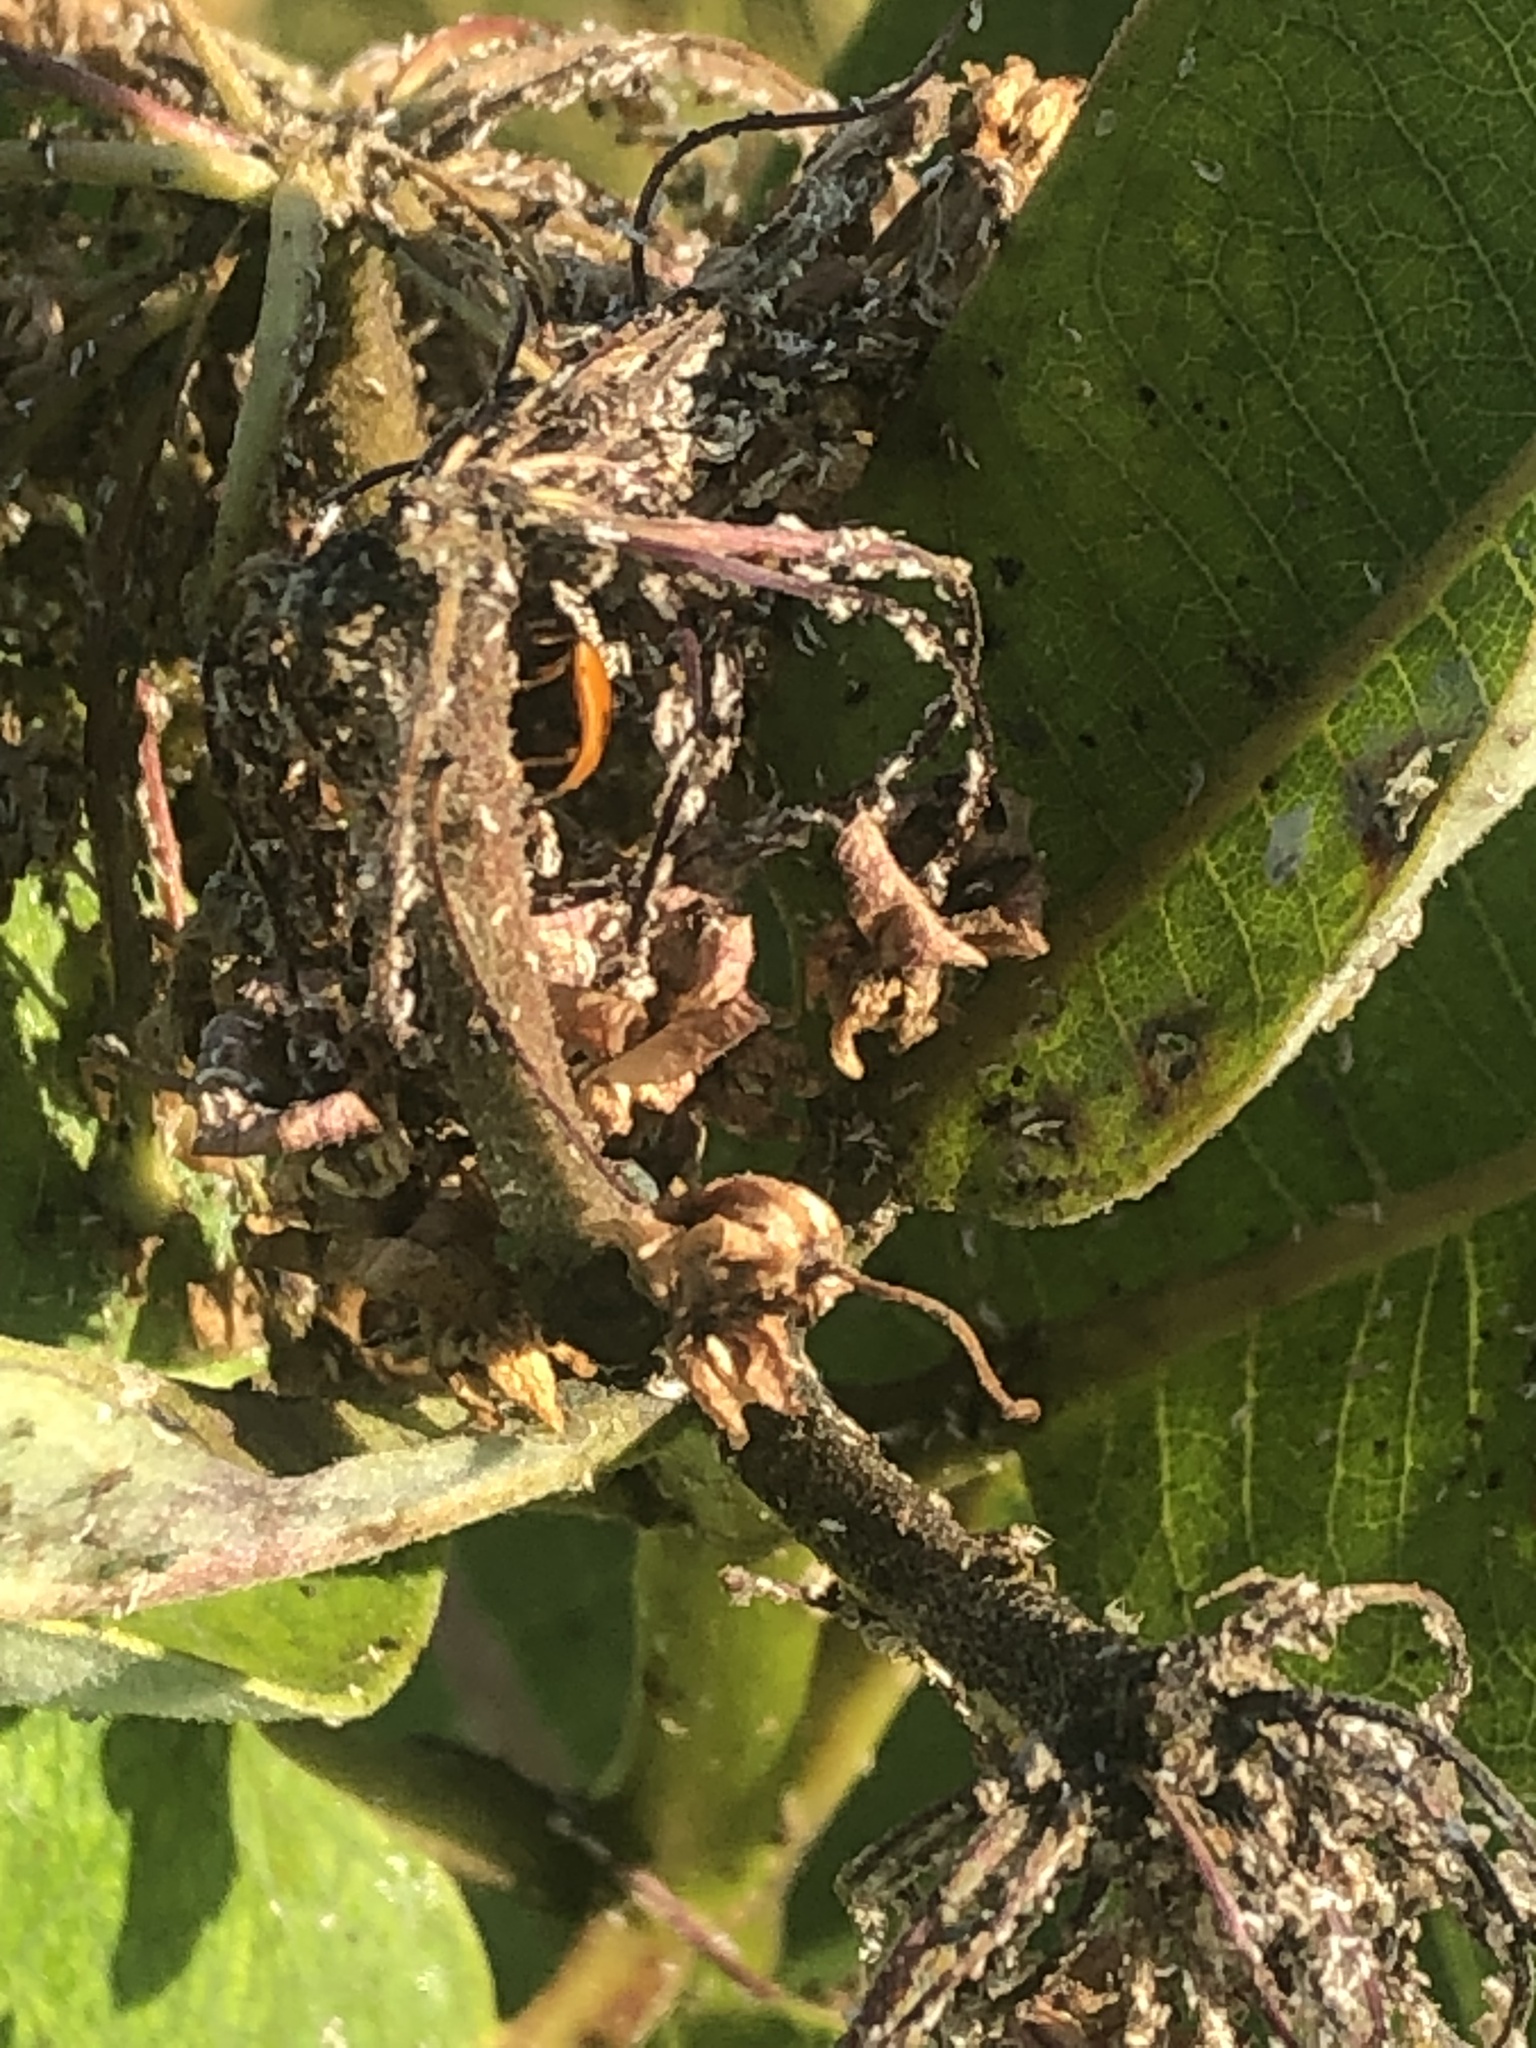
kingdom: Animalia
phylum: Arthropoda
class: Insecta
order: Coleoptera
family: Coccinellidae
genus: Cycloneda
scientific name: Cycloneda munda
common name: Polished lady beetle
